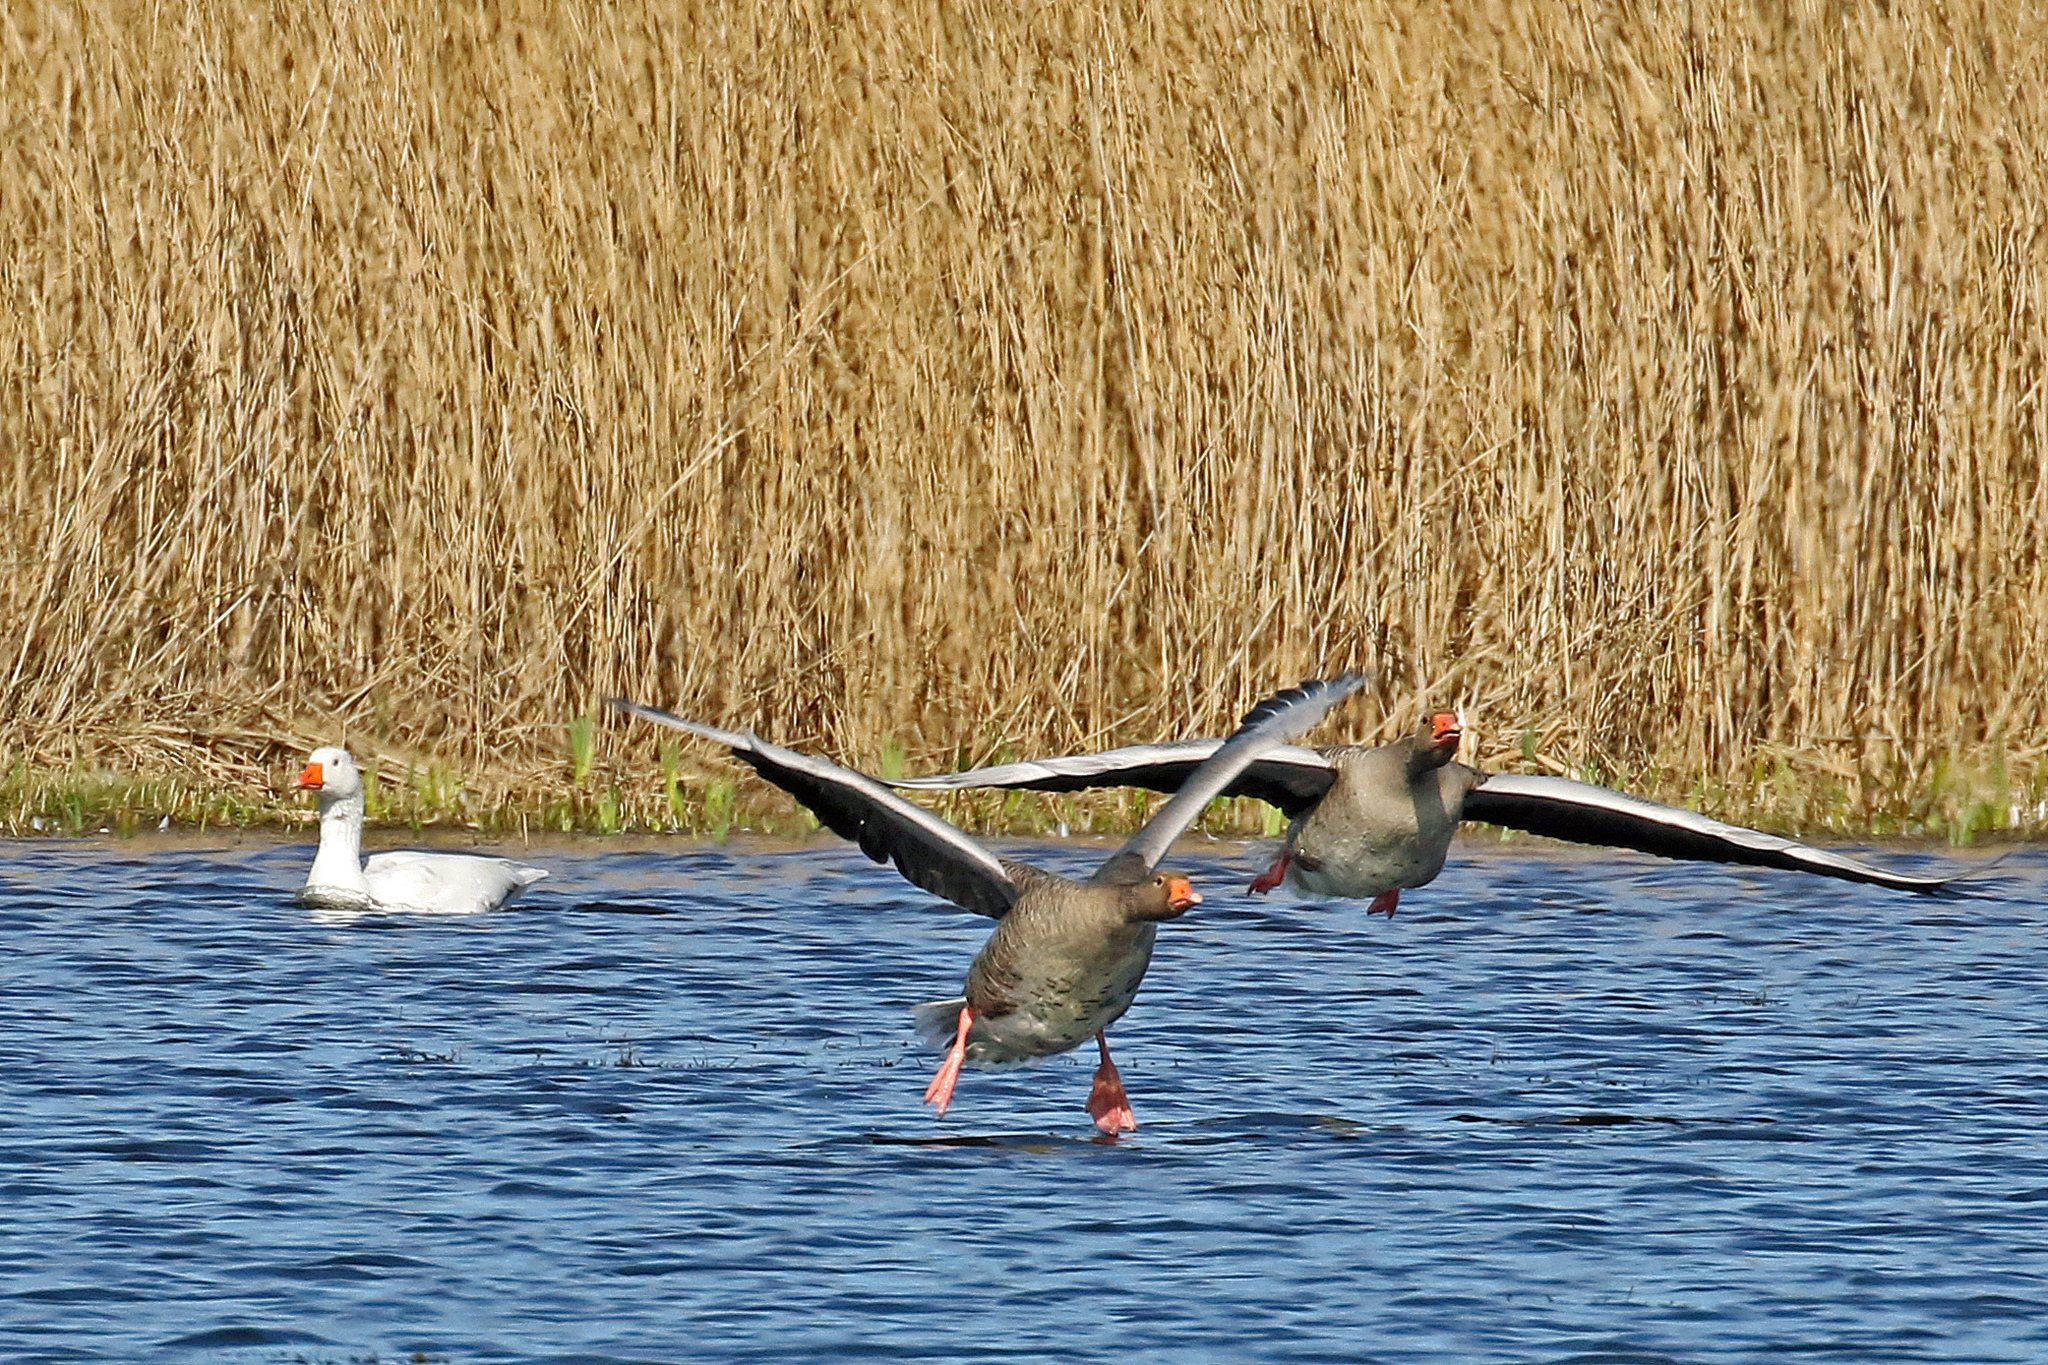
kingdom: Animalia
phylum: Chordata
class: Aves
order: Anseriformes
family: Anatidae
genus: Anser
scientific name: Anser anser
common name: Greylag goose
